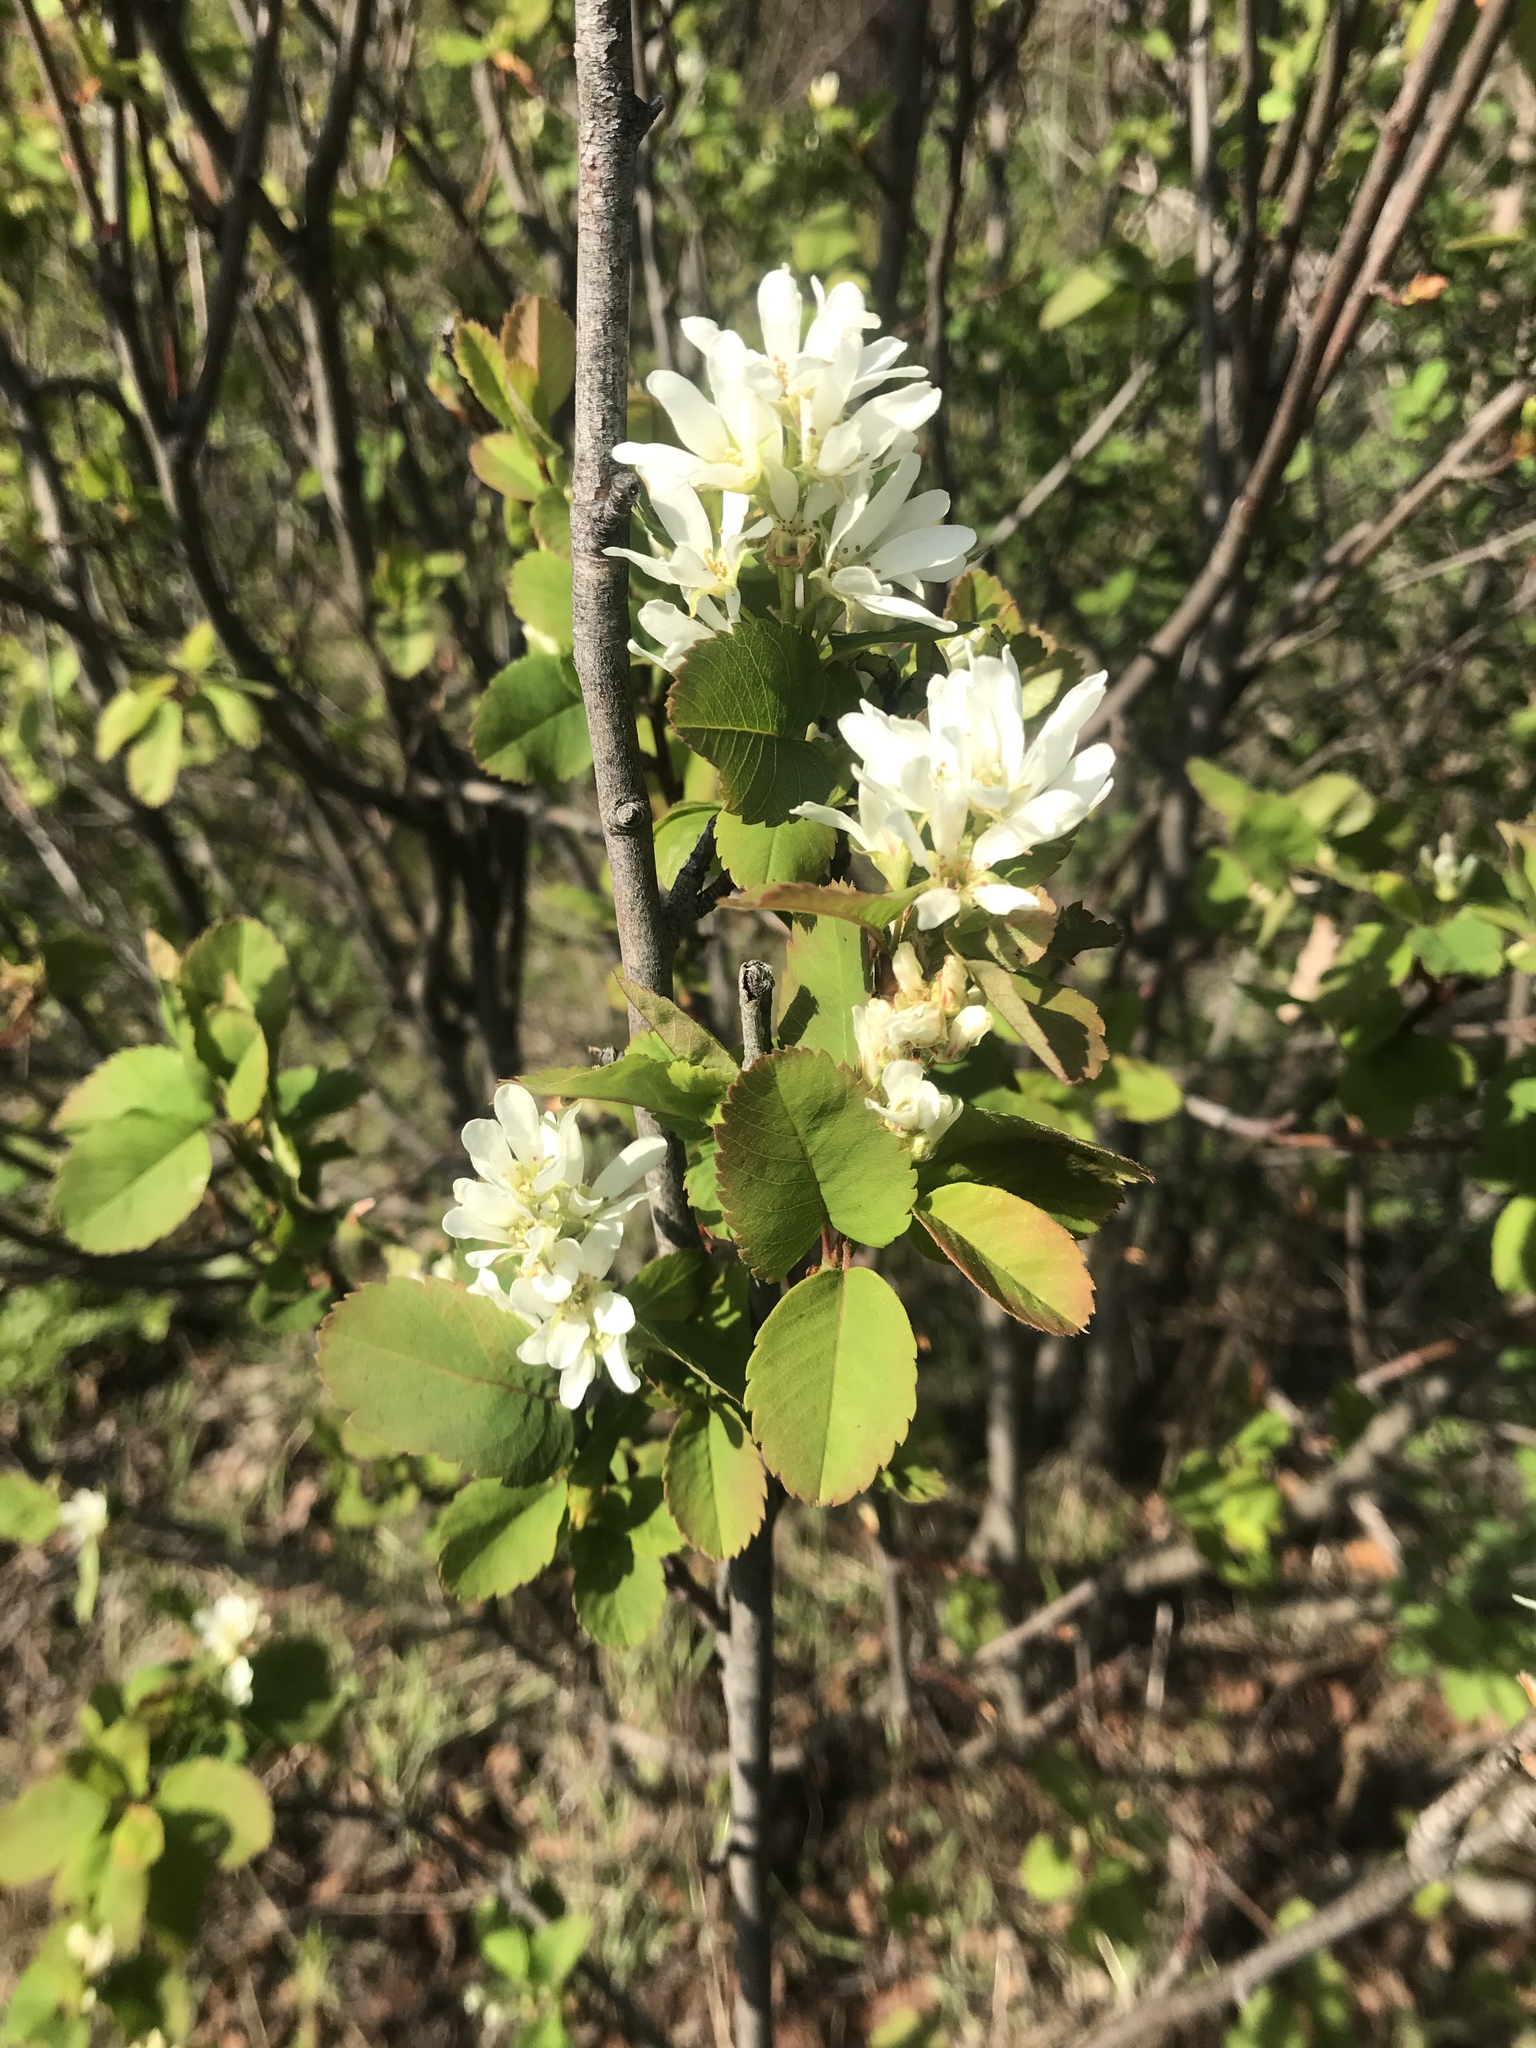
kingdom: Plantae
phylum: Tracheophyta
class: Magnoliopsida
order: Rosales
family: Rosaceae
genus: Amelanchier
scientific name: Amelanchier alnifolia
